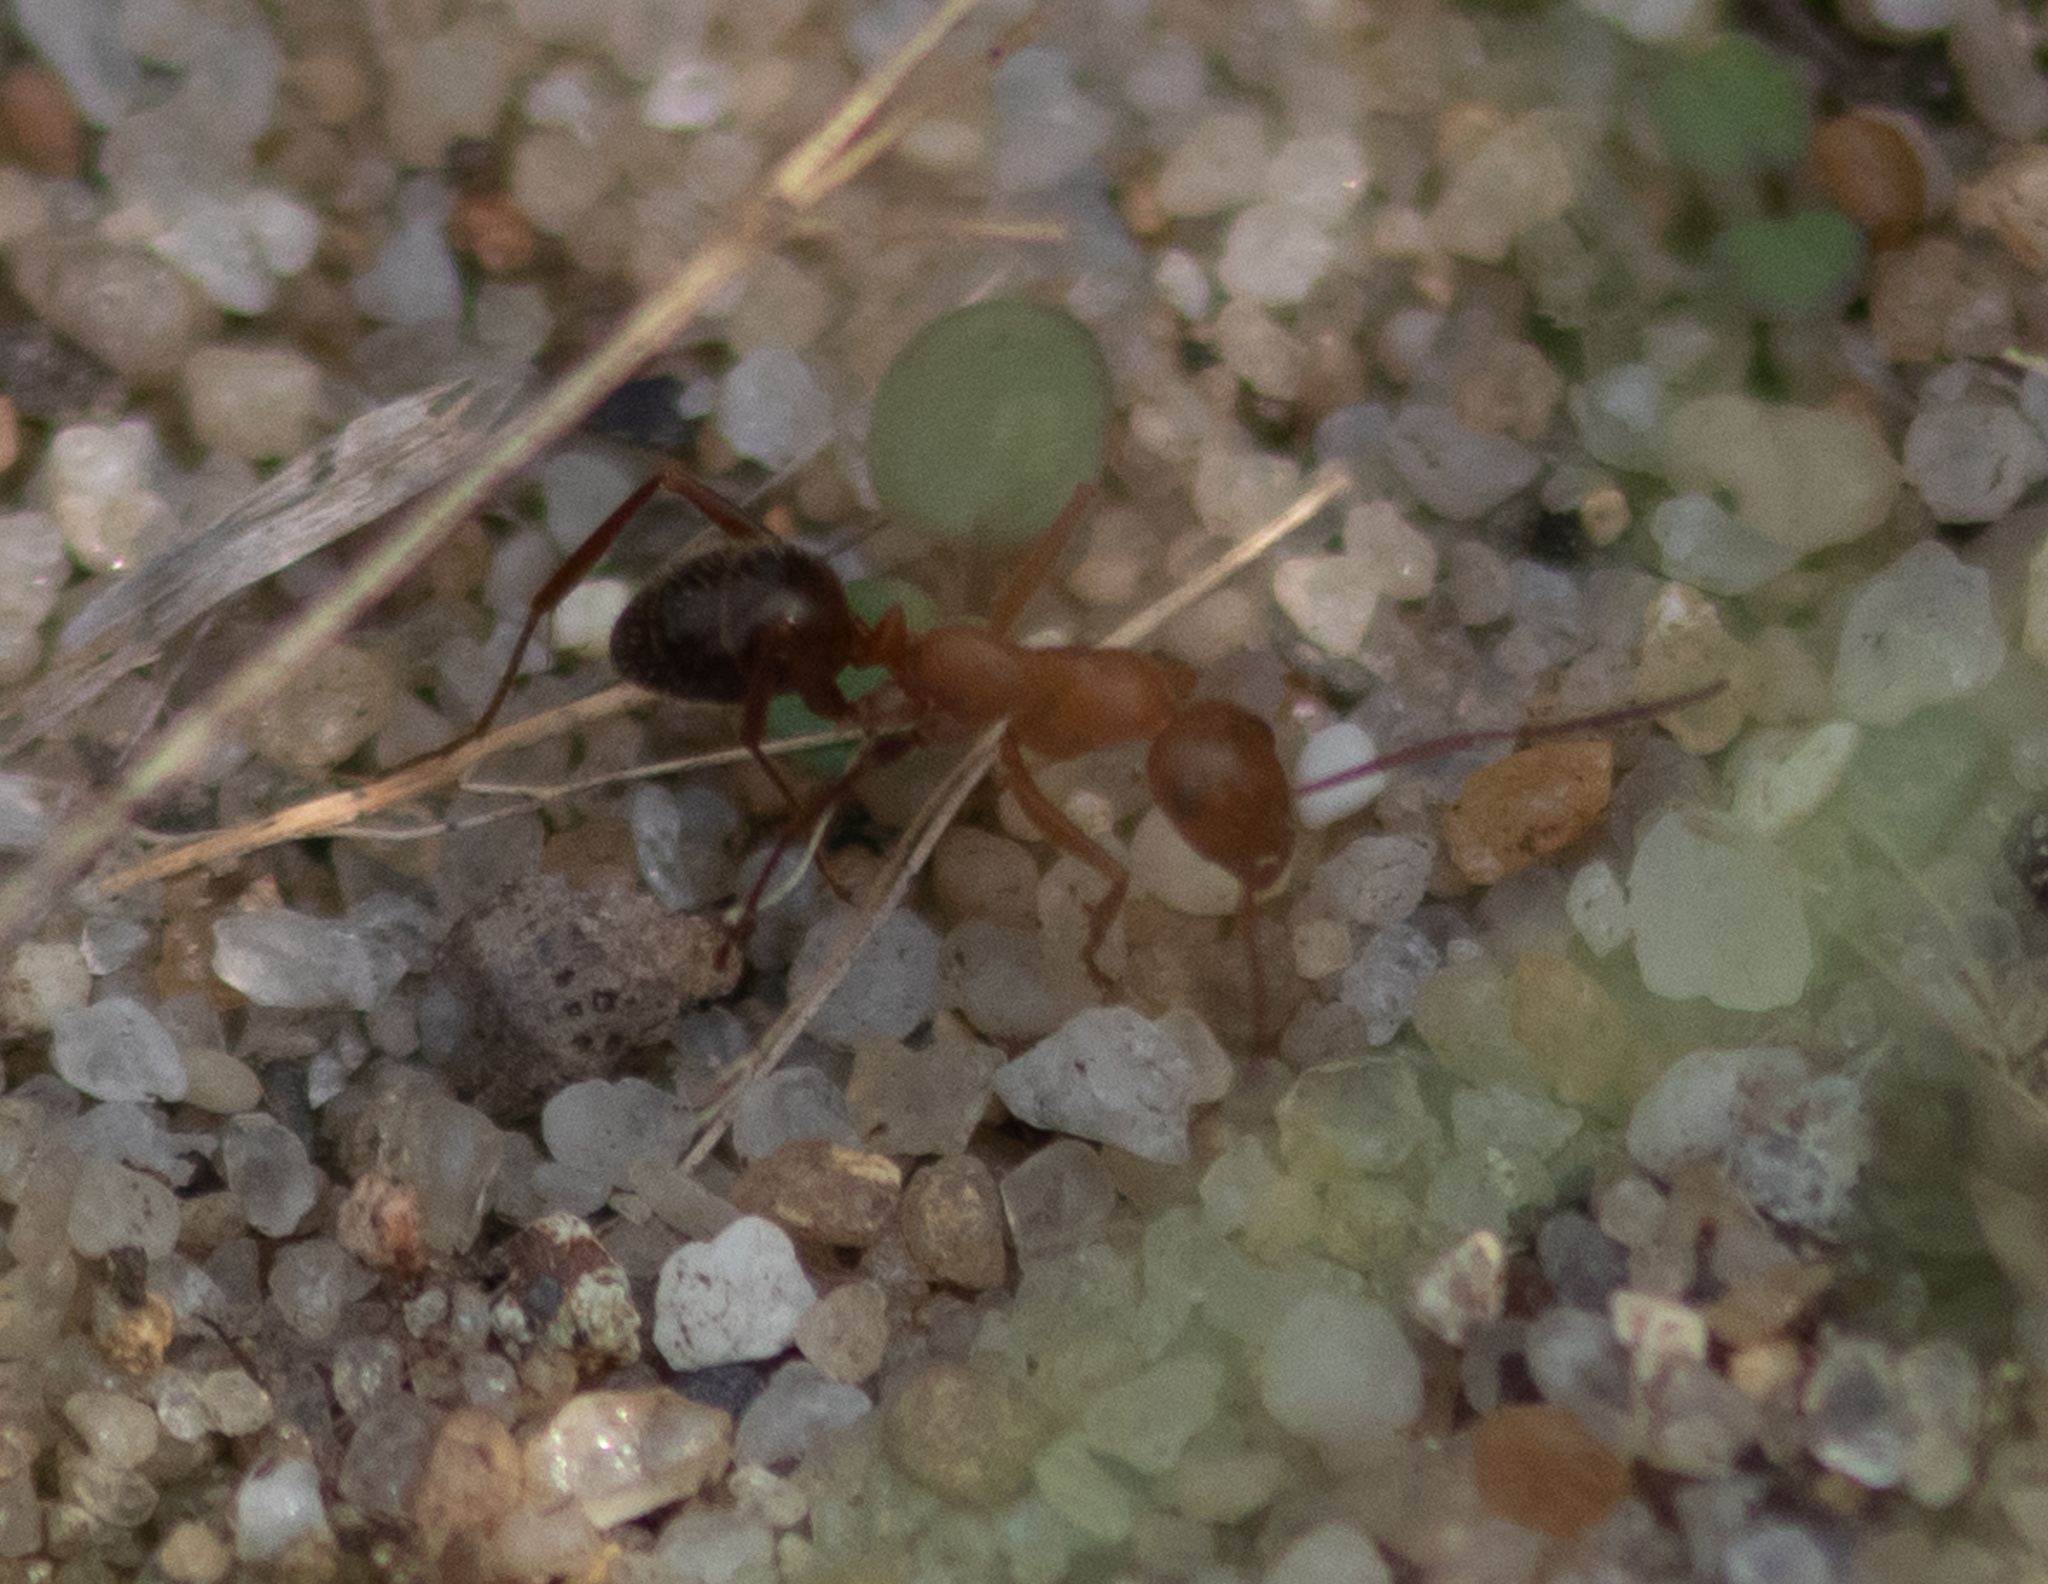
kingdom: Animalia
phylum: Arthropoda
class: Insecta
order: Hymenoptera
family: Formicidae
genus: Formica
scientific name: Formica pallidefulva
